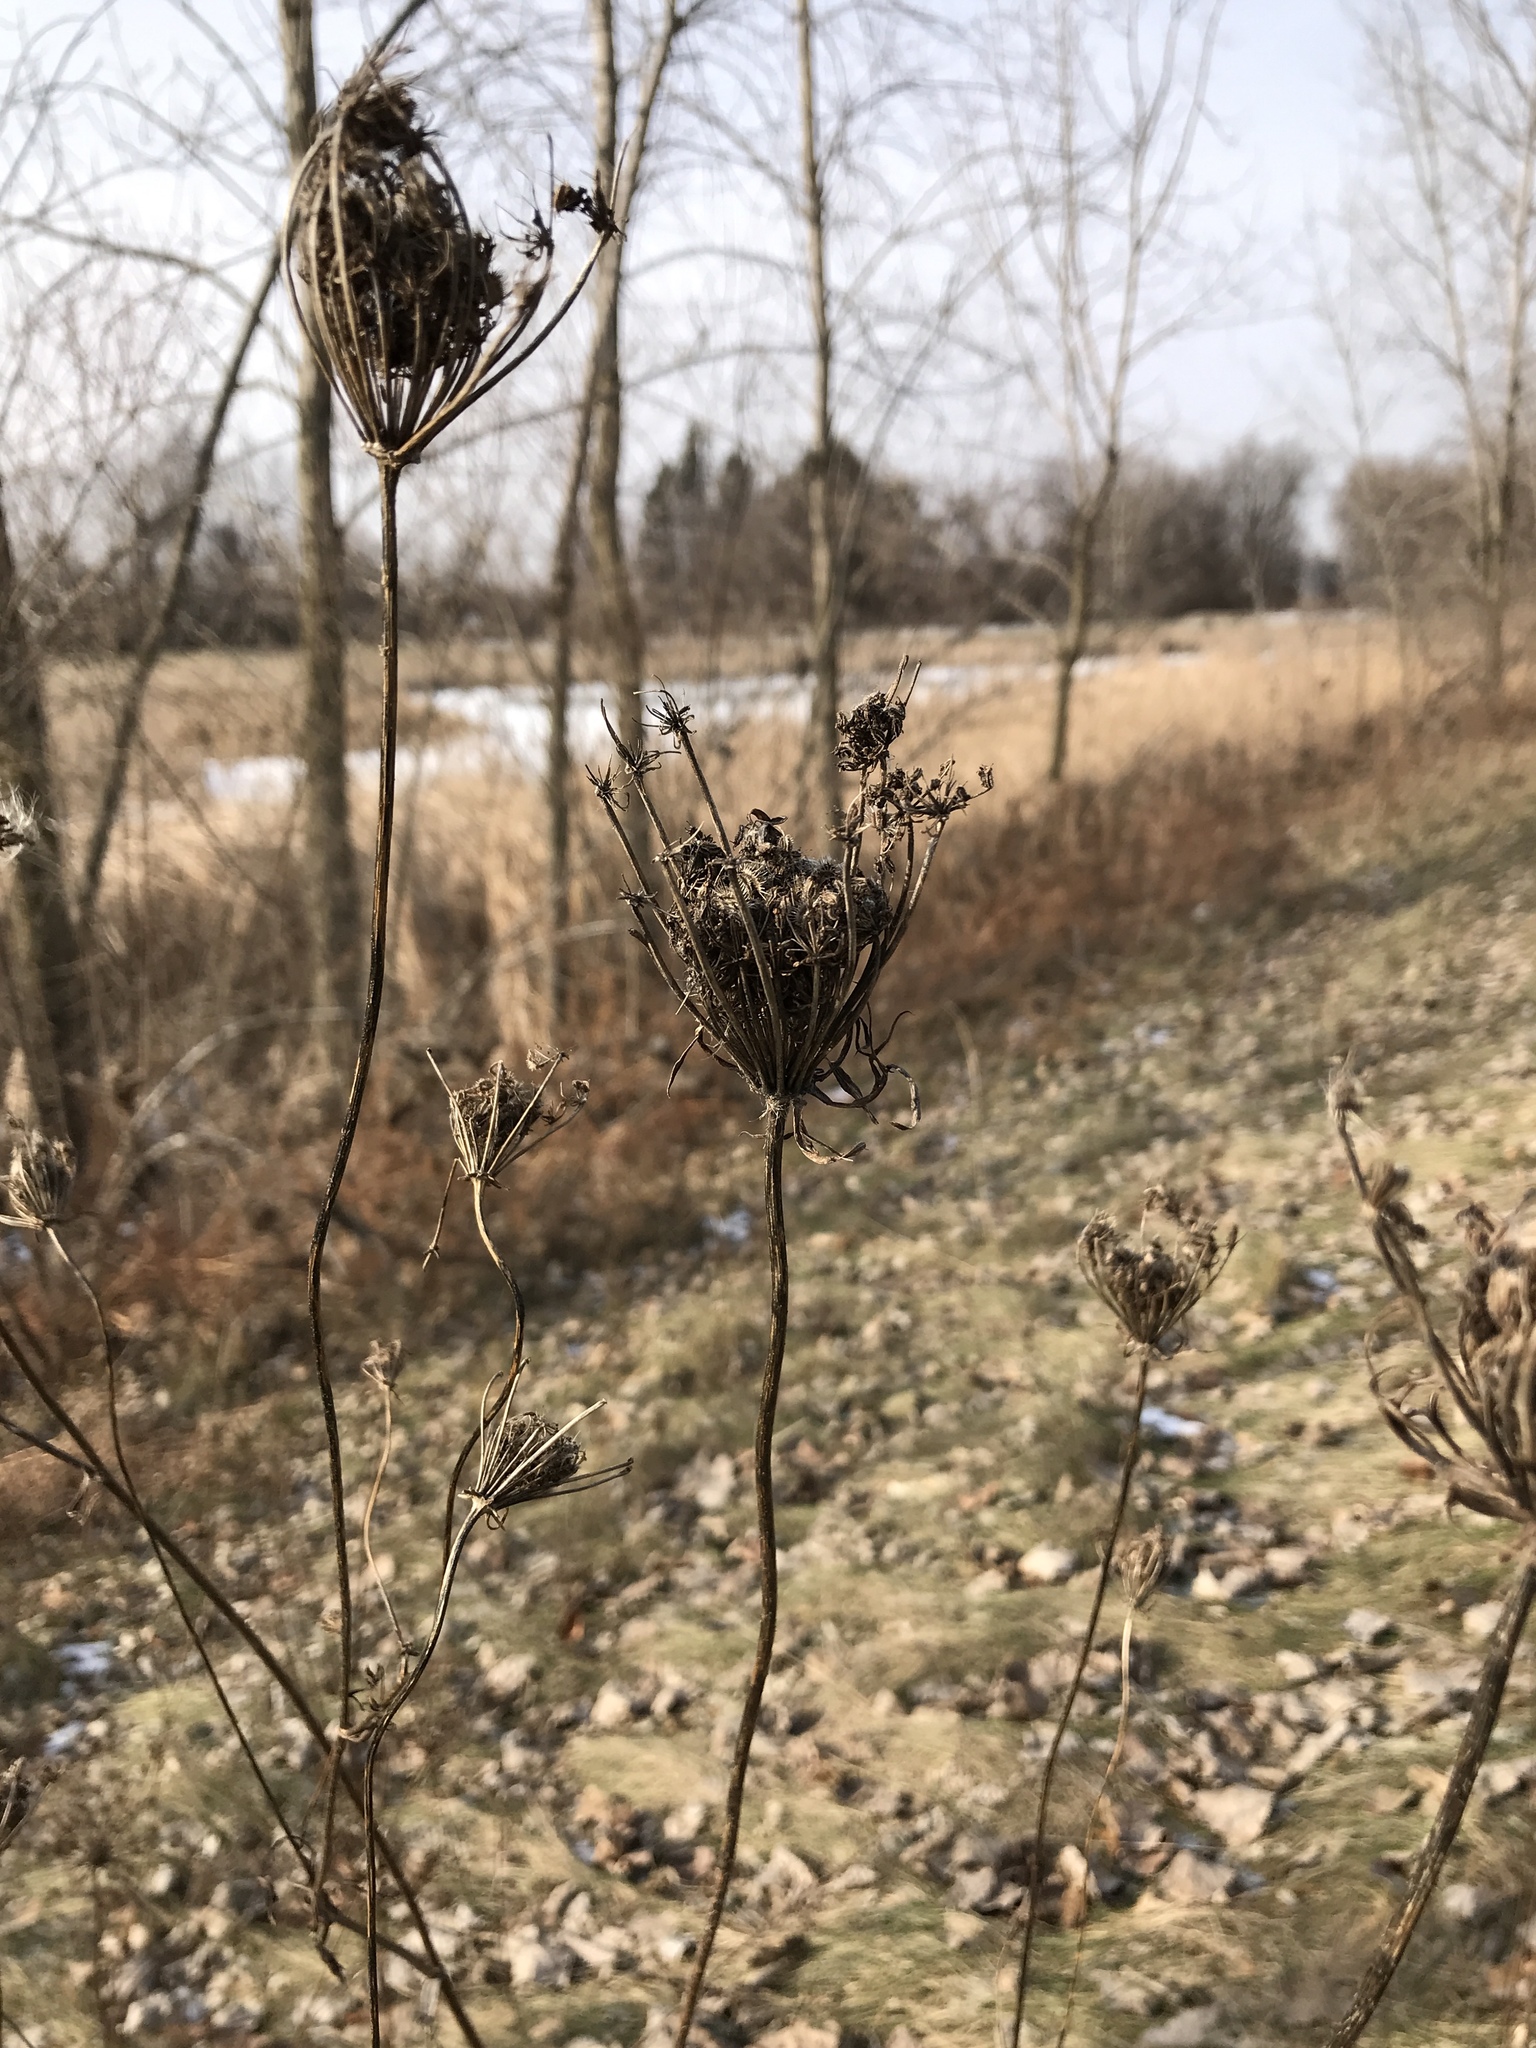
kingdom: Plantae
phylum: Tracheophyta
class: Magnoliopsida
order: Apiales
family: Apiaceae
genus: Daucus
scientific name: Daucus carota
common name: Wild carrot
